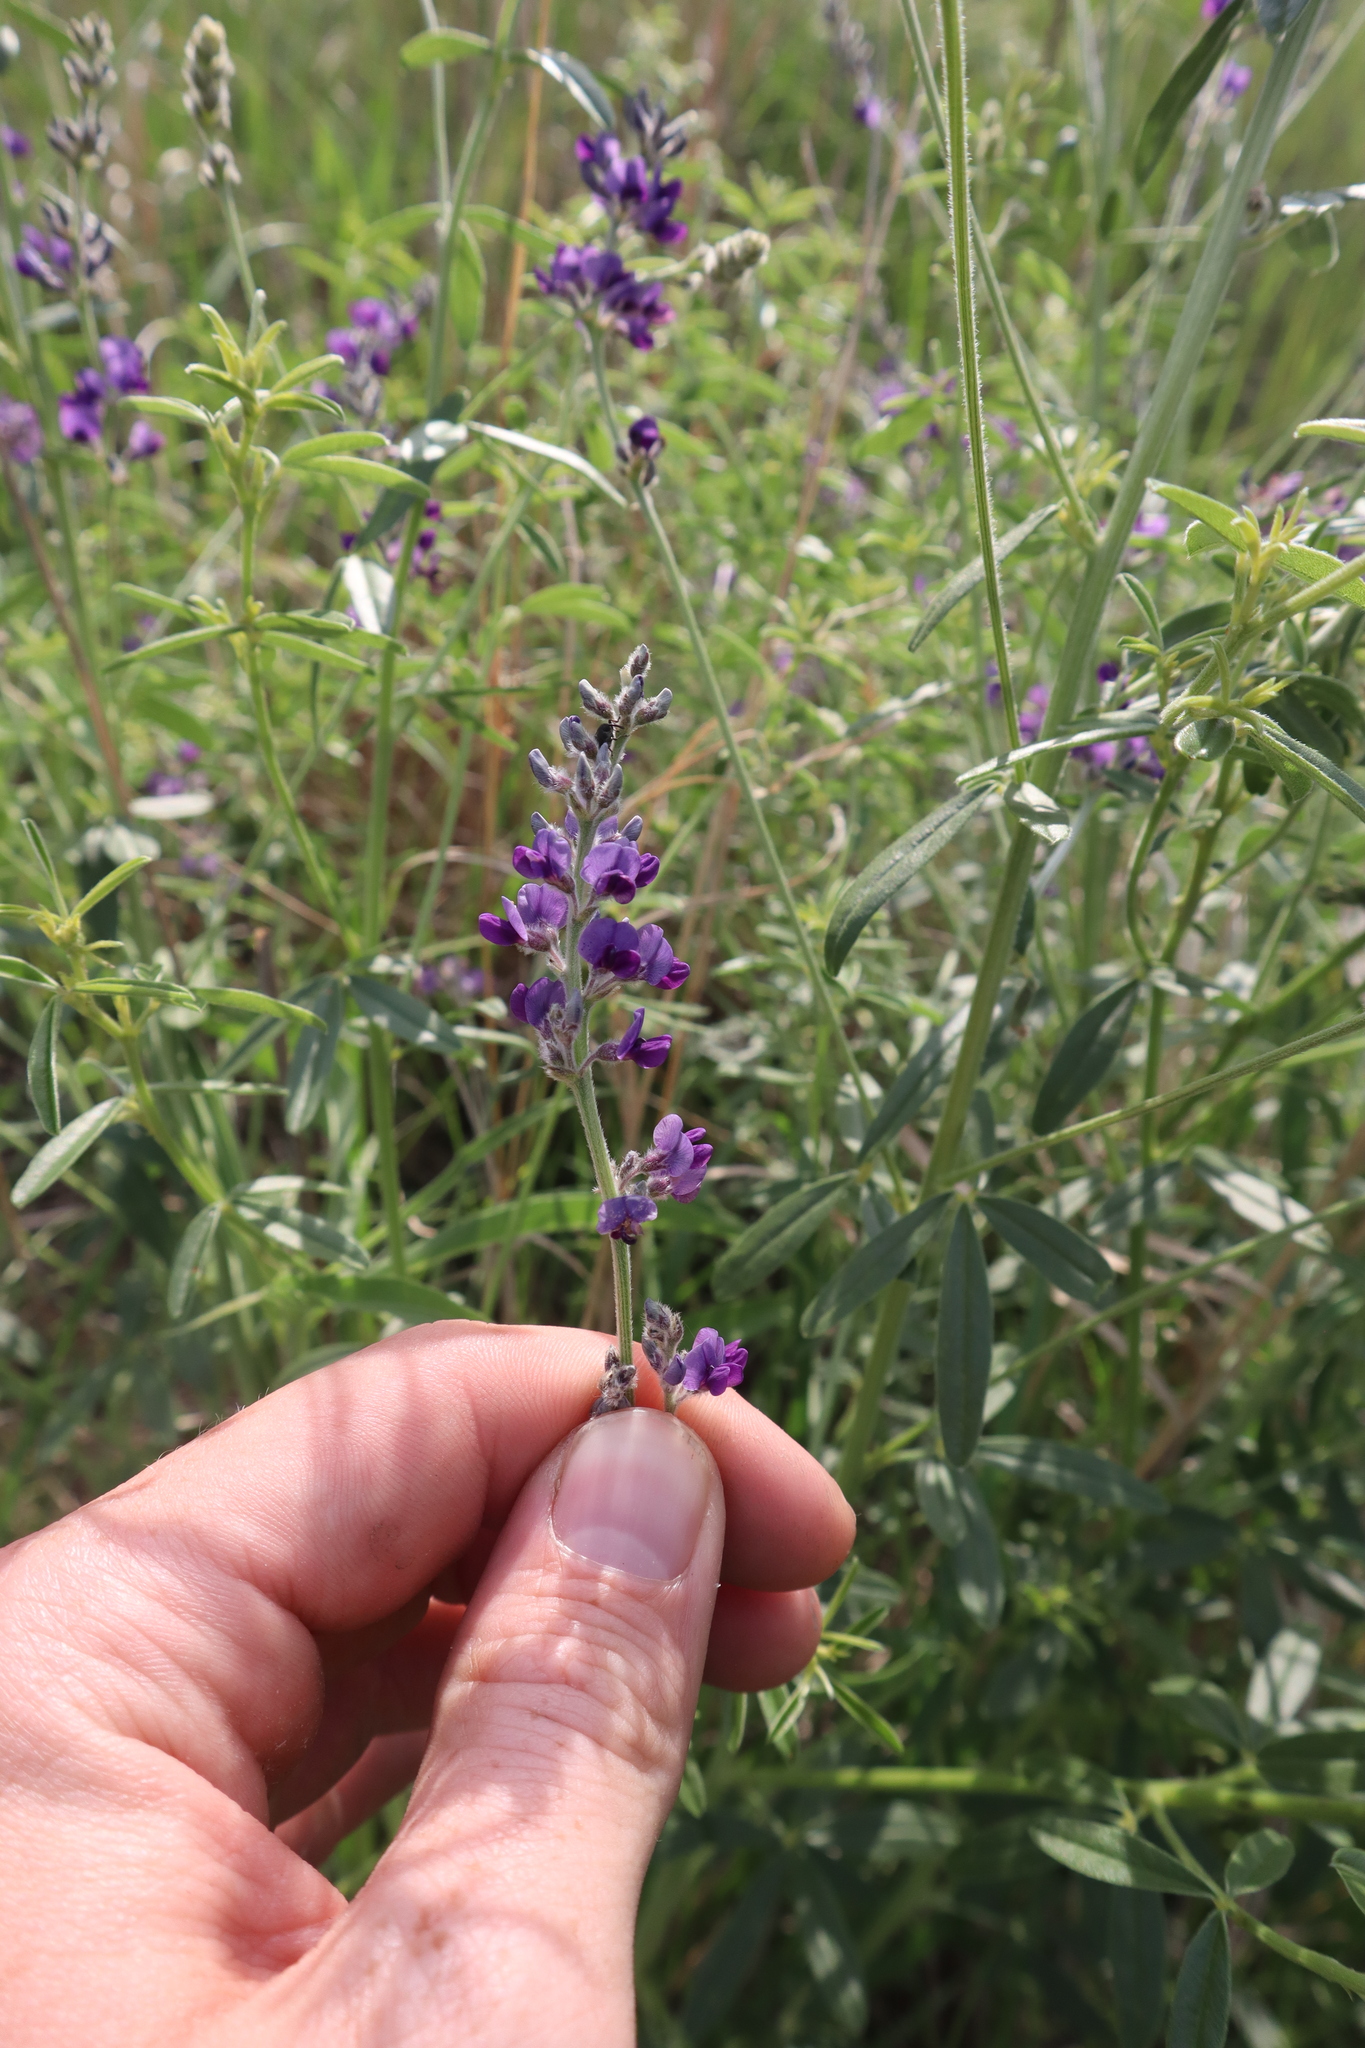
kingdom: Plantae
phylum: Tracheophyta
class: Magnoliopsida
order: Fabales
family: Fabaceae
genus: Pediomelum
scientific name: Pediomelum tenuiflorum
